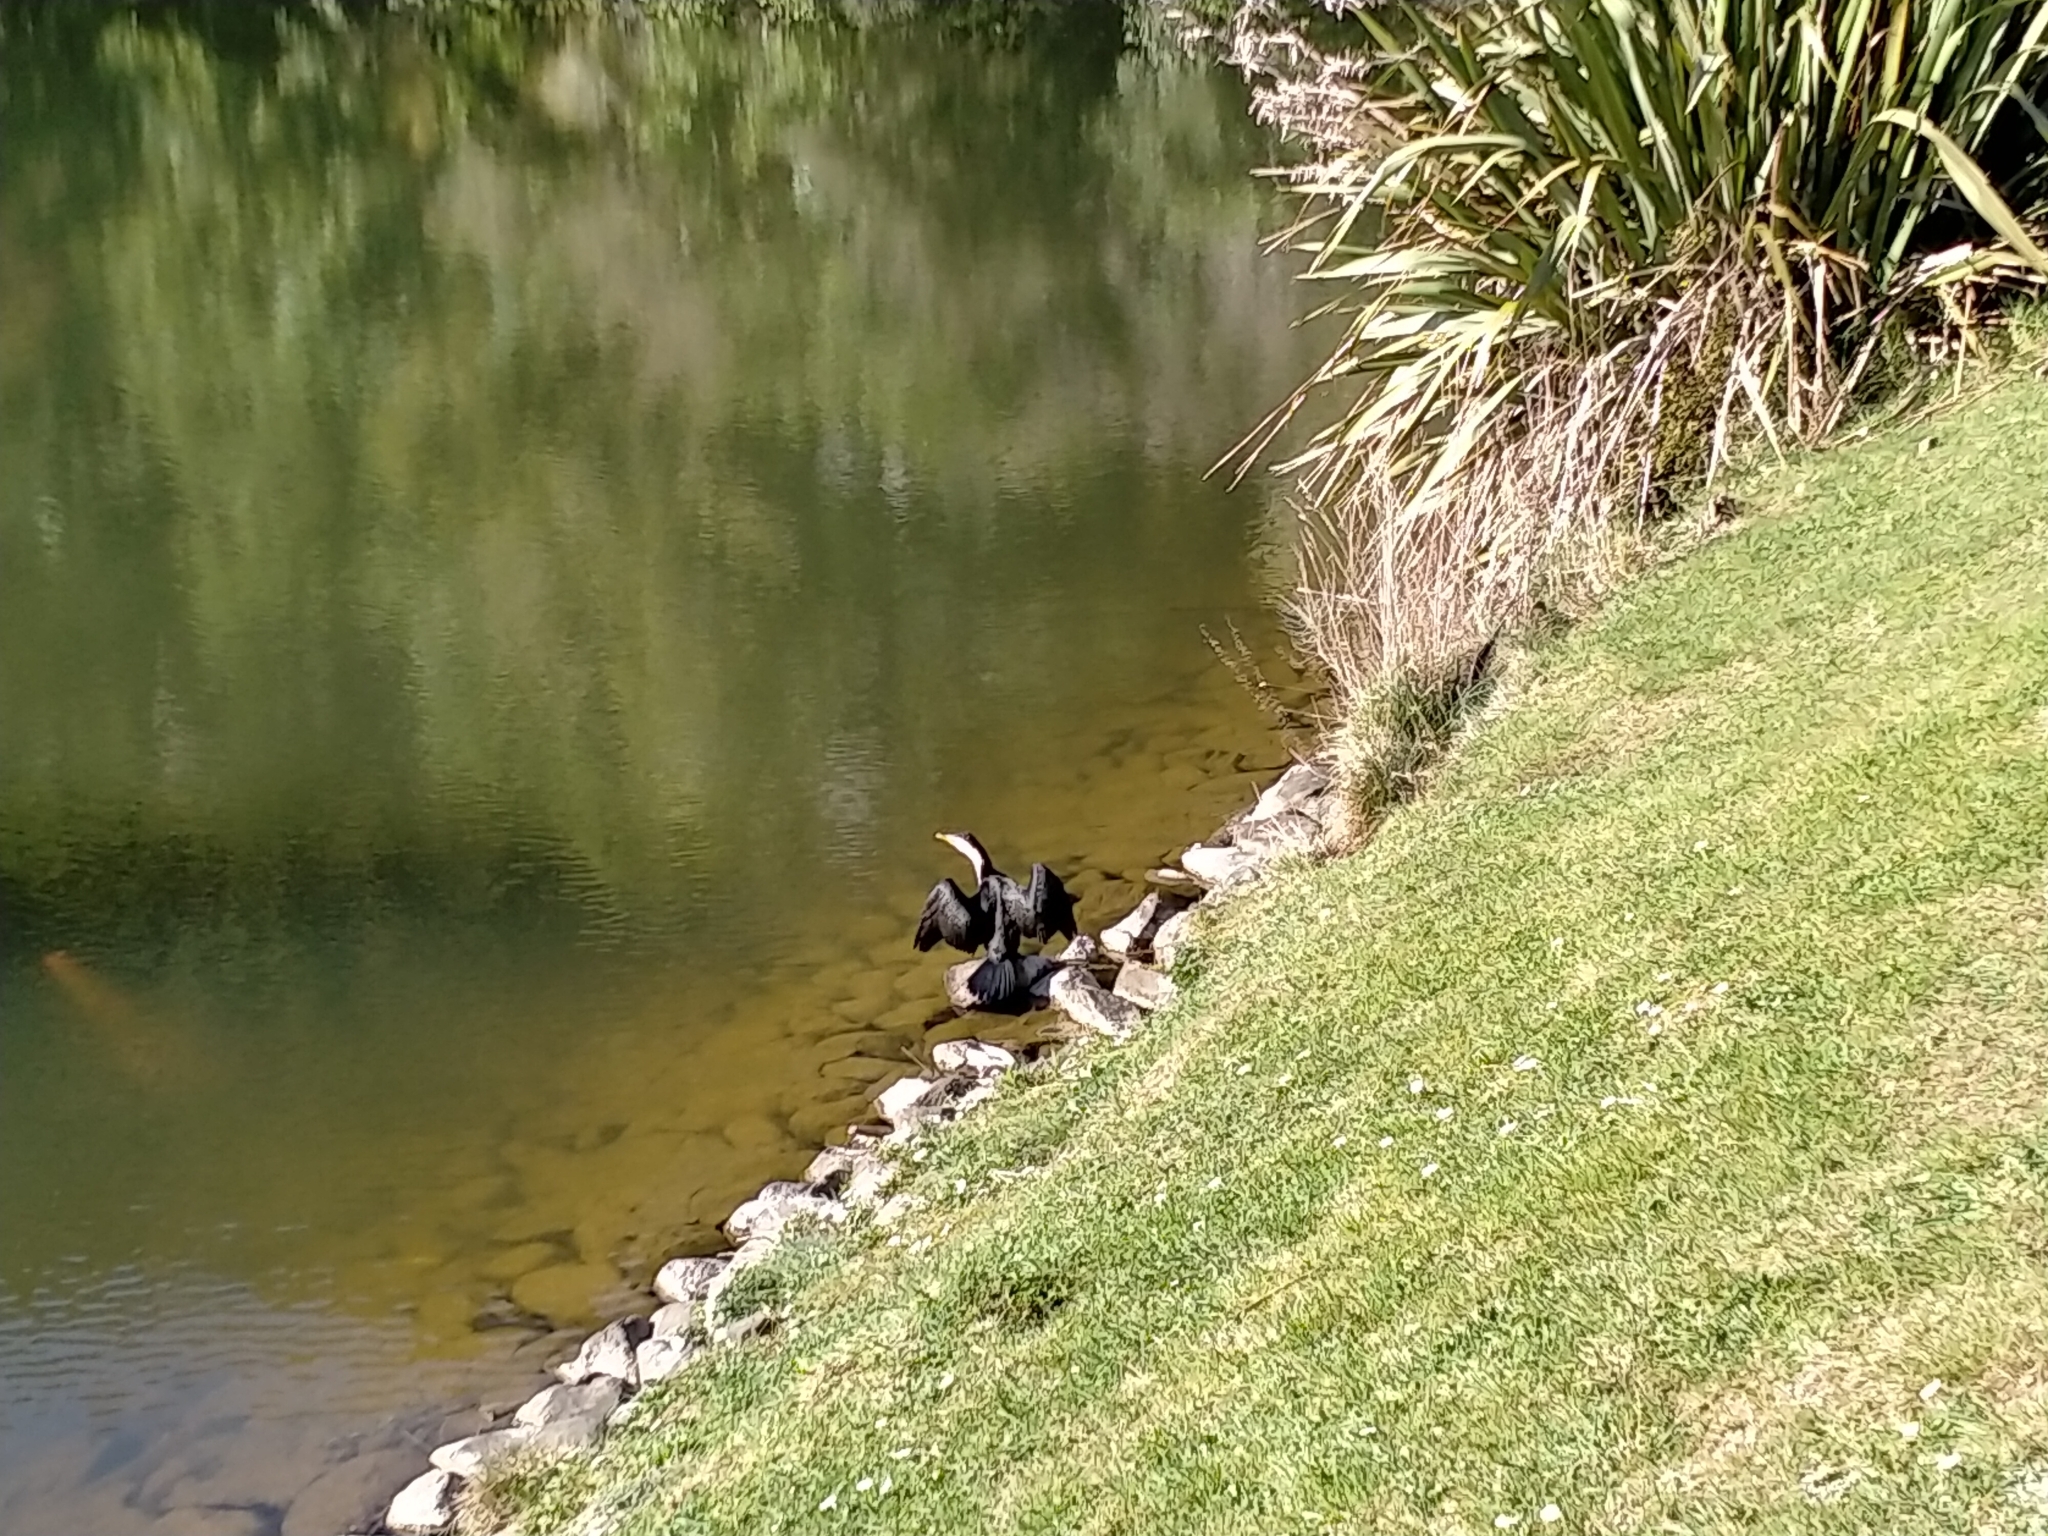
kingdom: Animalia
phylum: Chordata
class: Aves
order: Suliformes
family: Phalacrocoracidae
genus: Microcarbo
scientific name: Microcarbo melanoleucos
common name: Little pied cormorant
